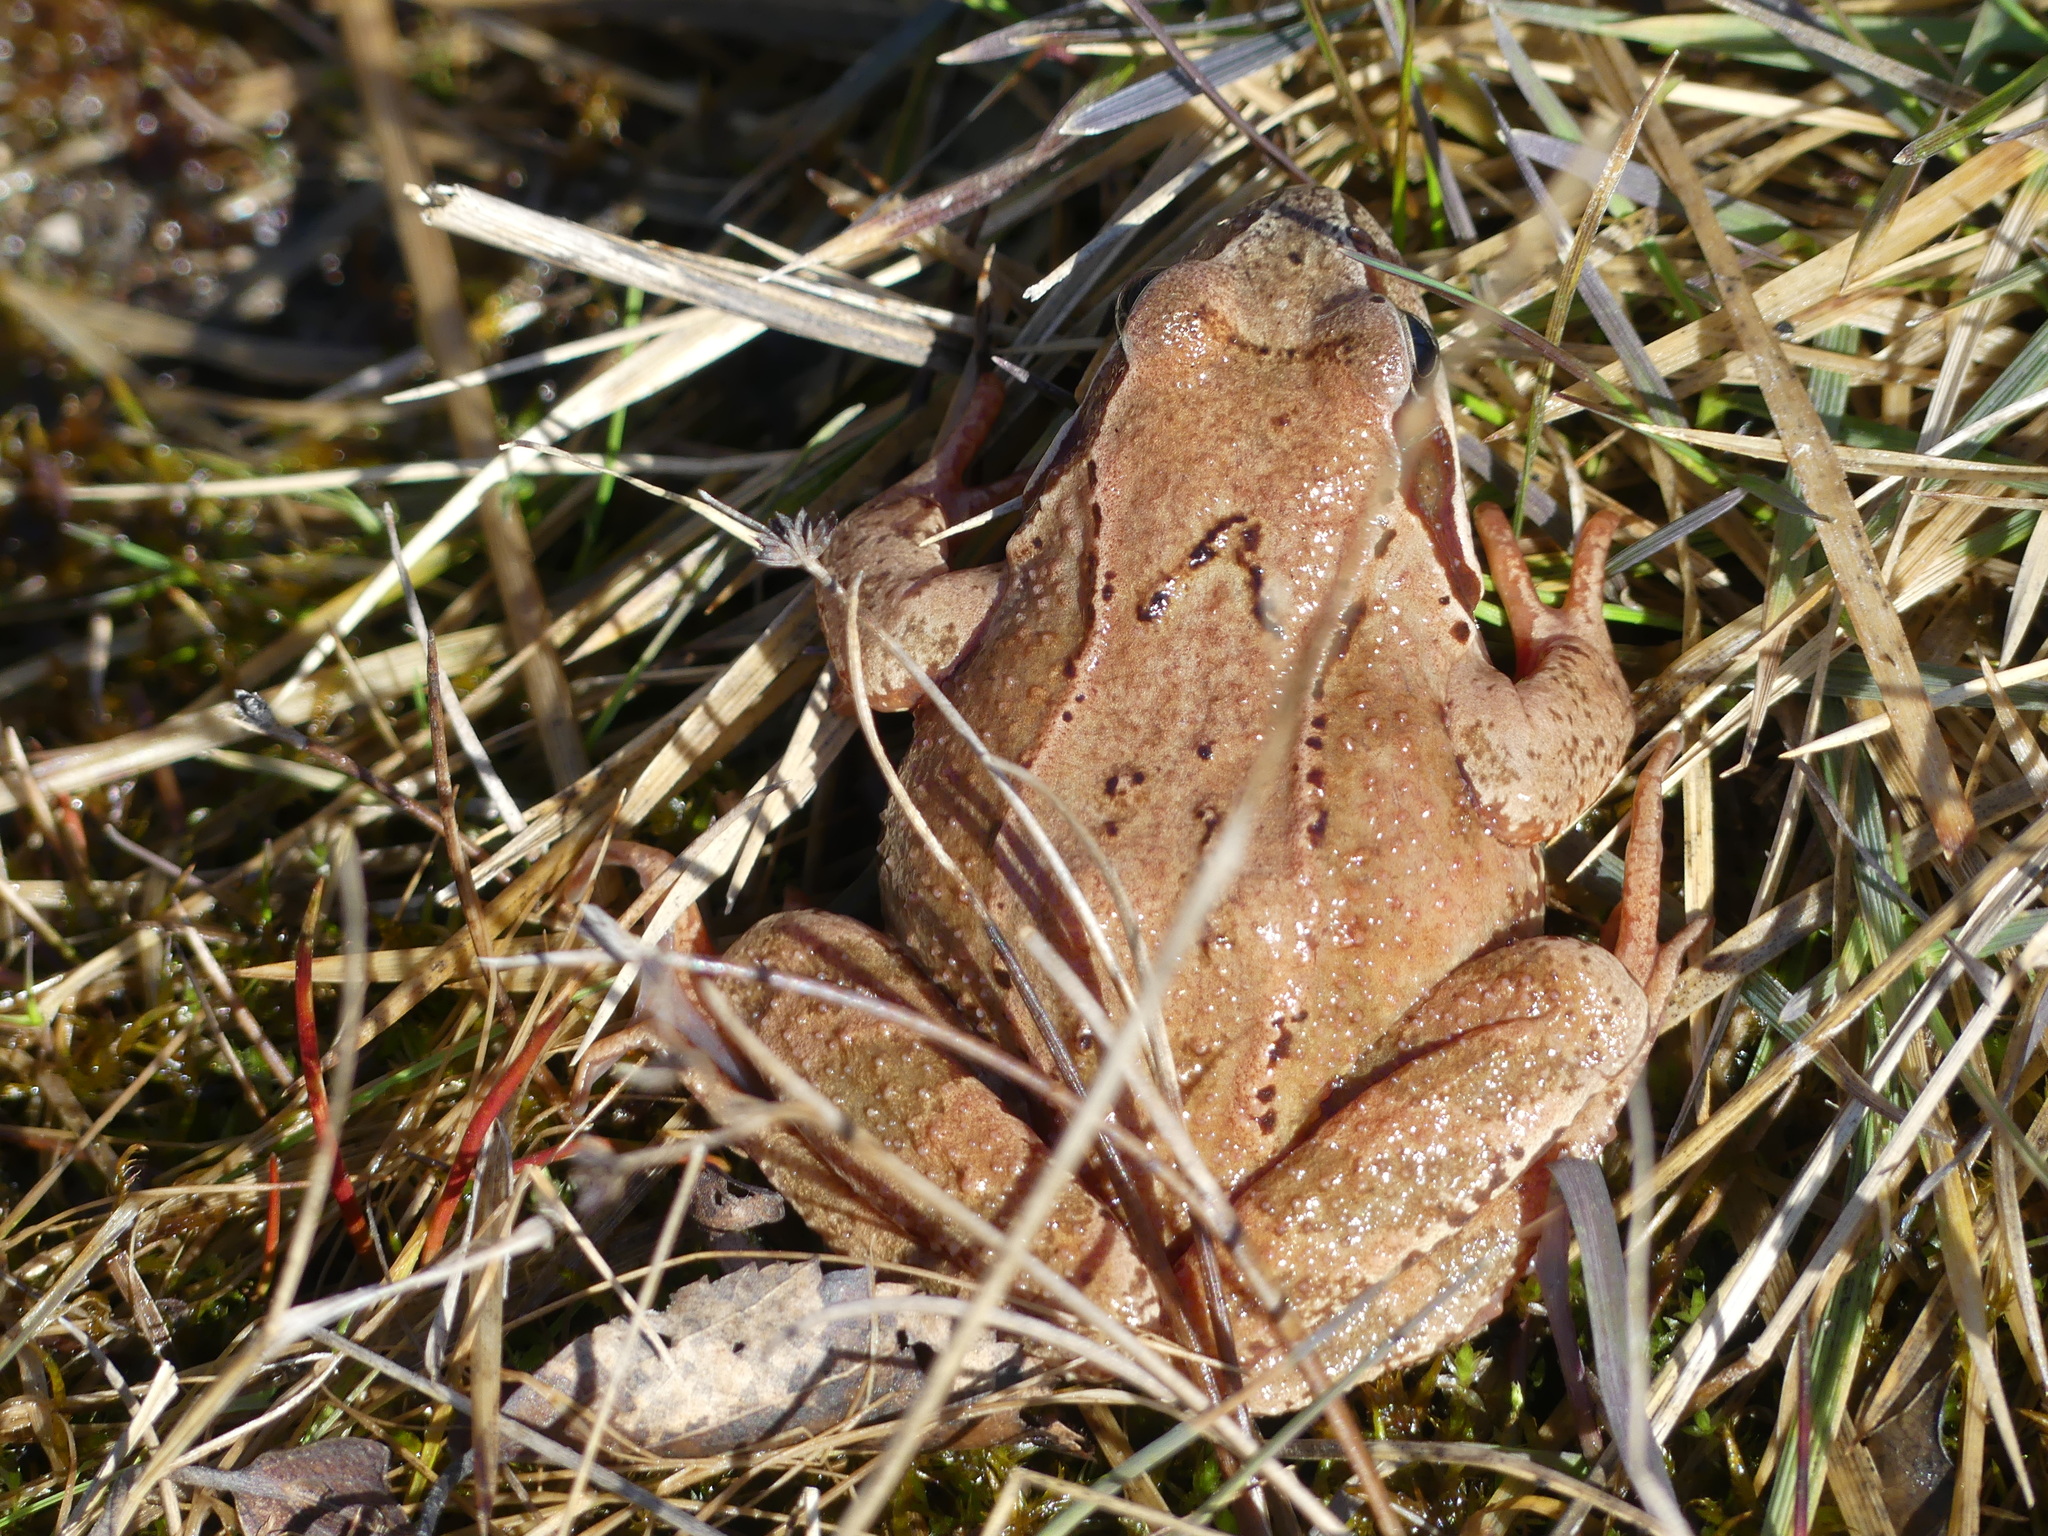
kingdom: Animalia
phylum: Chordata
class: Amphibia
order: Anura
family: Ranidae
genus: Rana
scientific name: Rana temporaria
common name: Common frog
